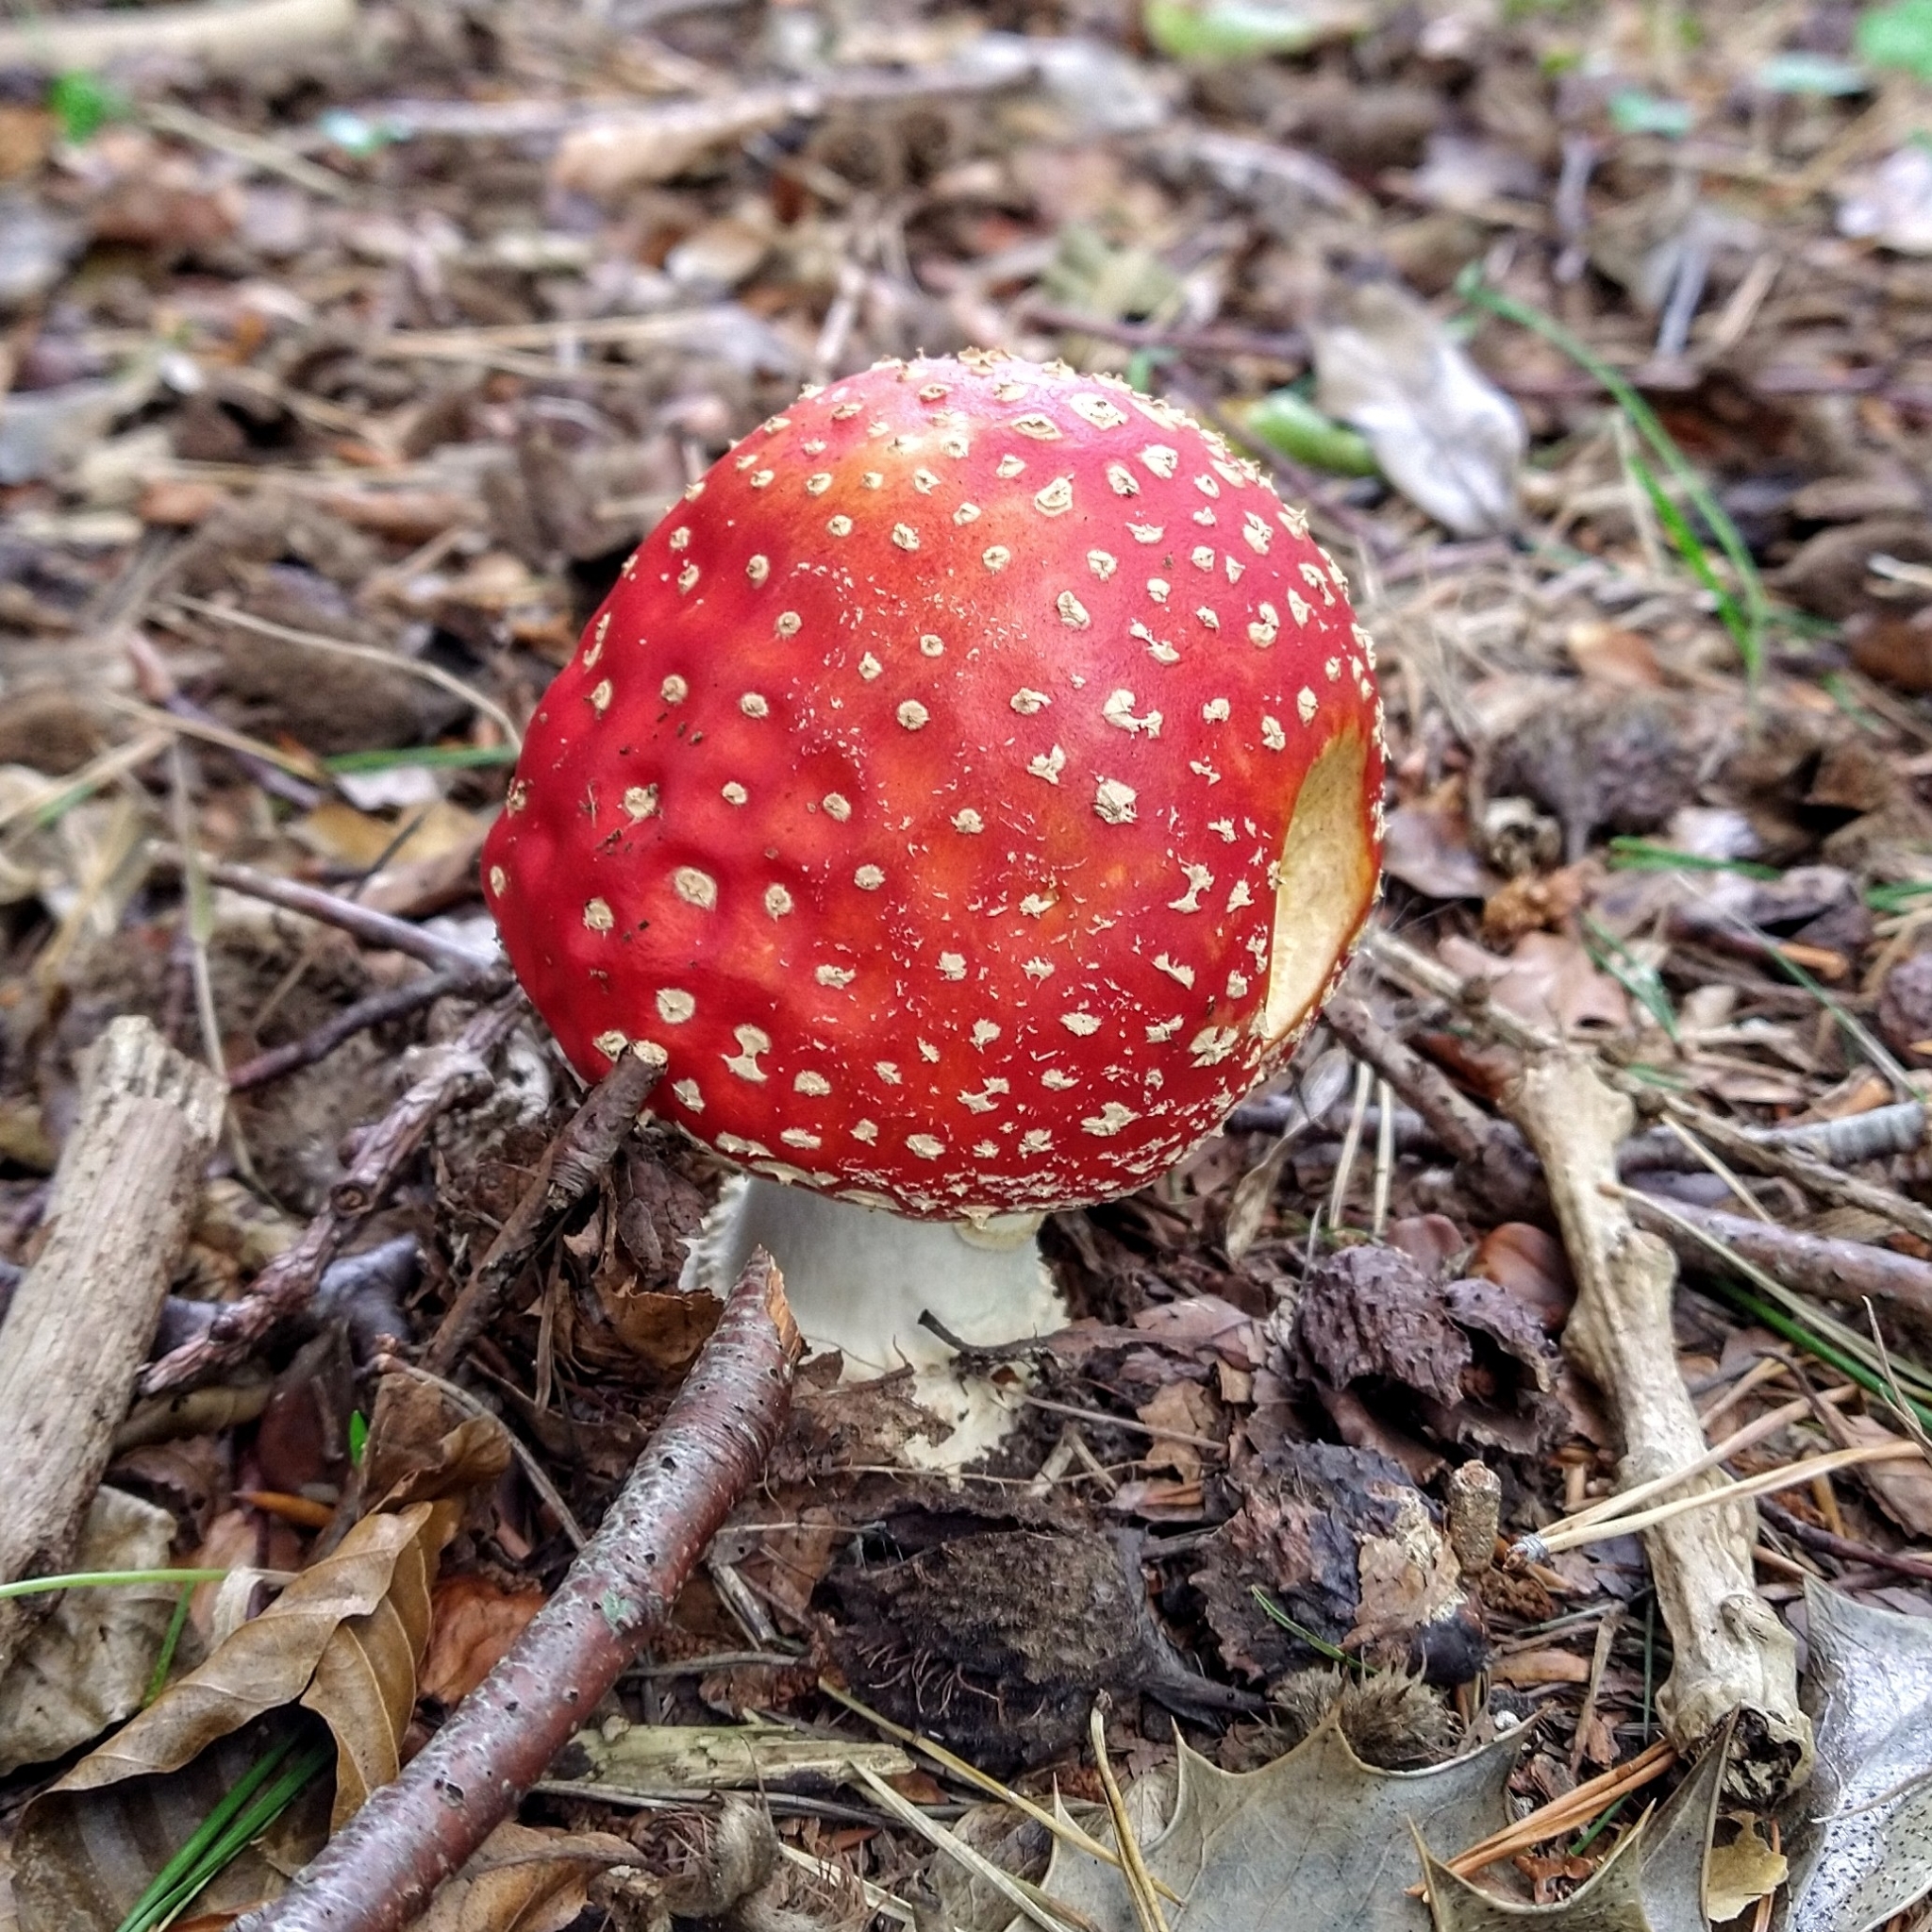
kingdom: Fungi
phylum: Basidiomycota
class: Agaricomycetes
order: Agaricales
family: Amanitaceae
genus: Amanita
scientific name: Amanita muscaria
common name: Fly agaric
